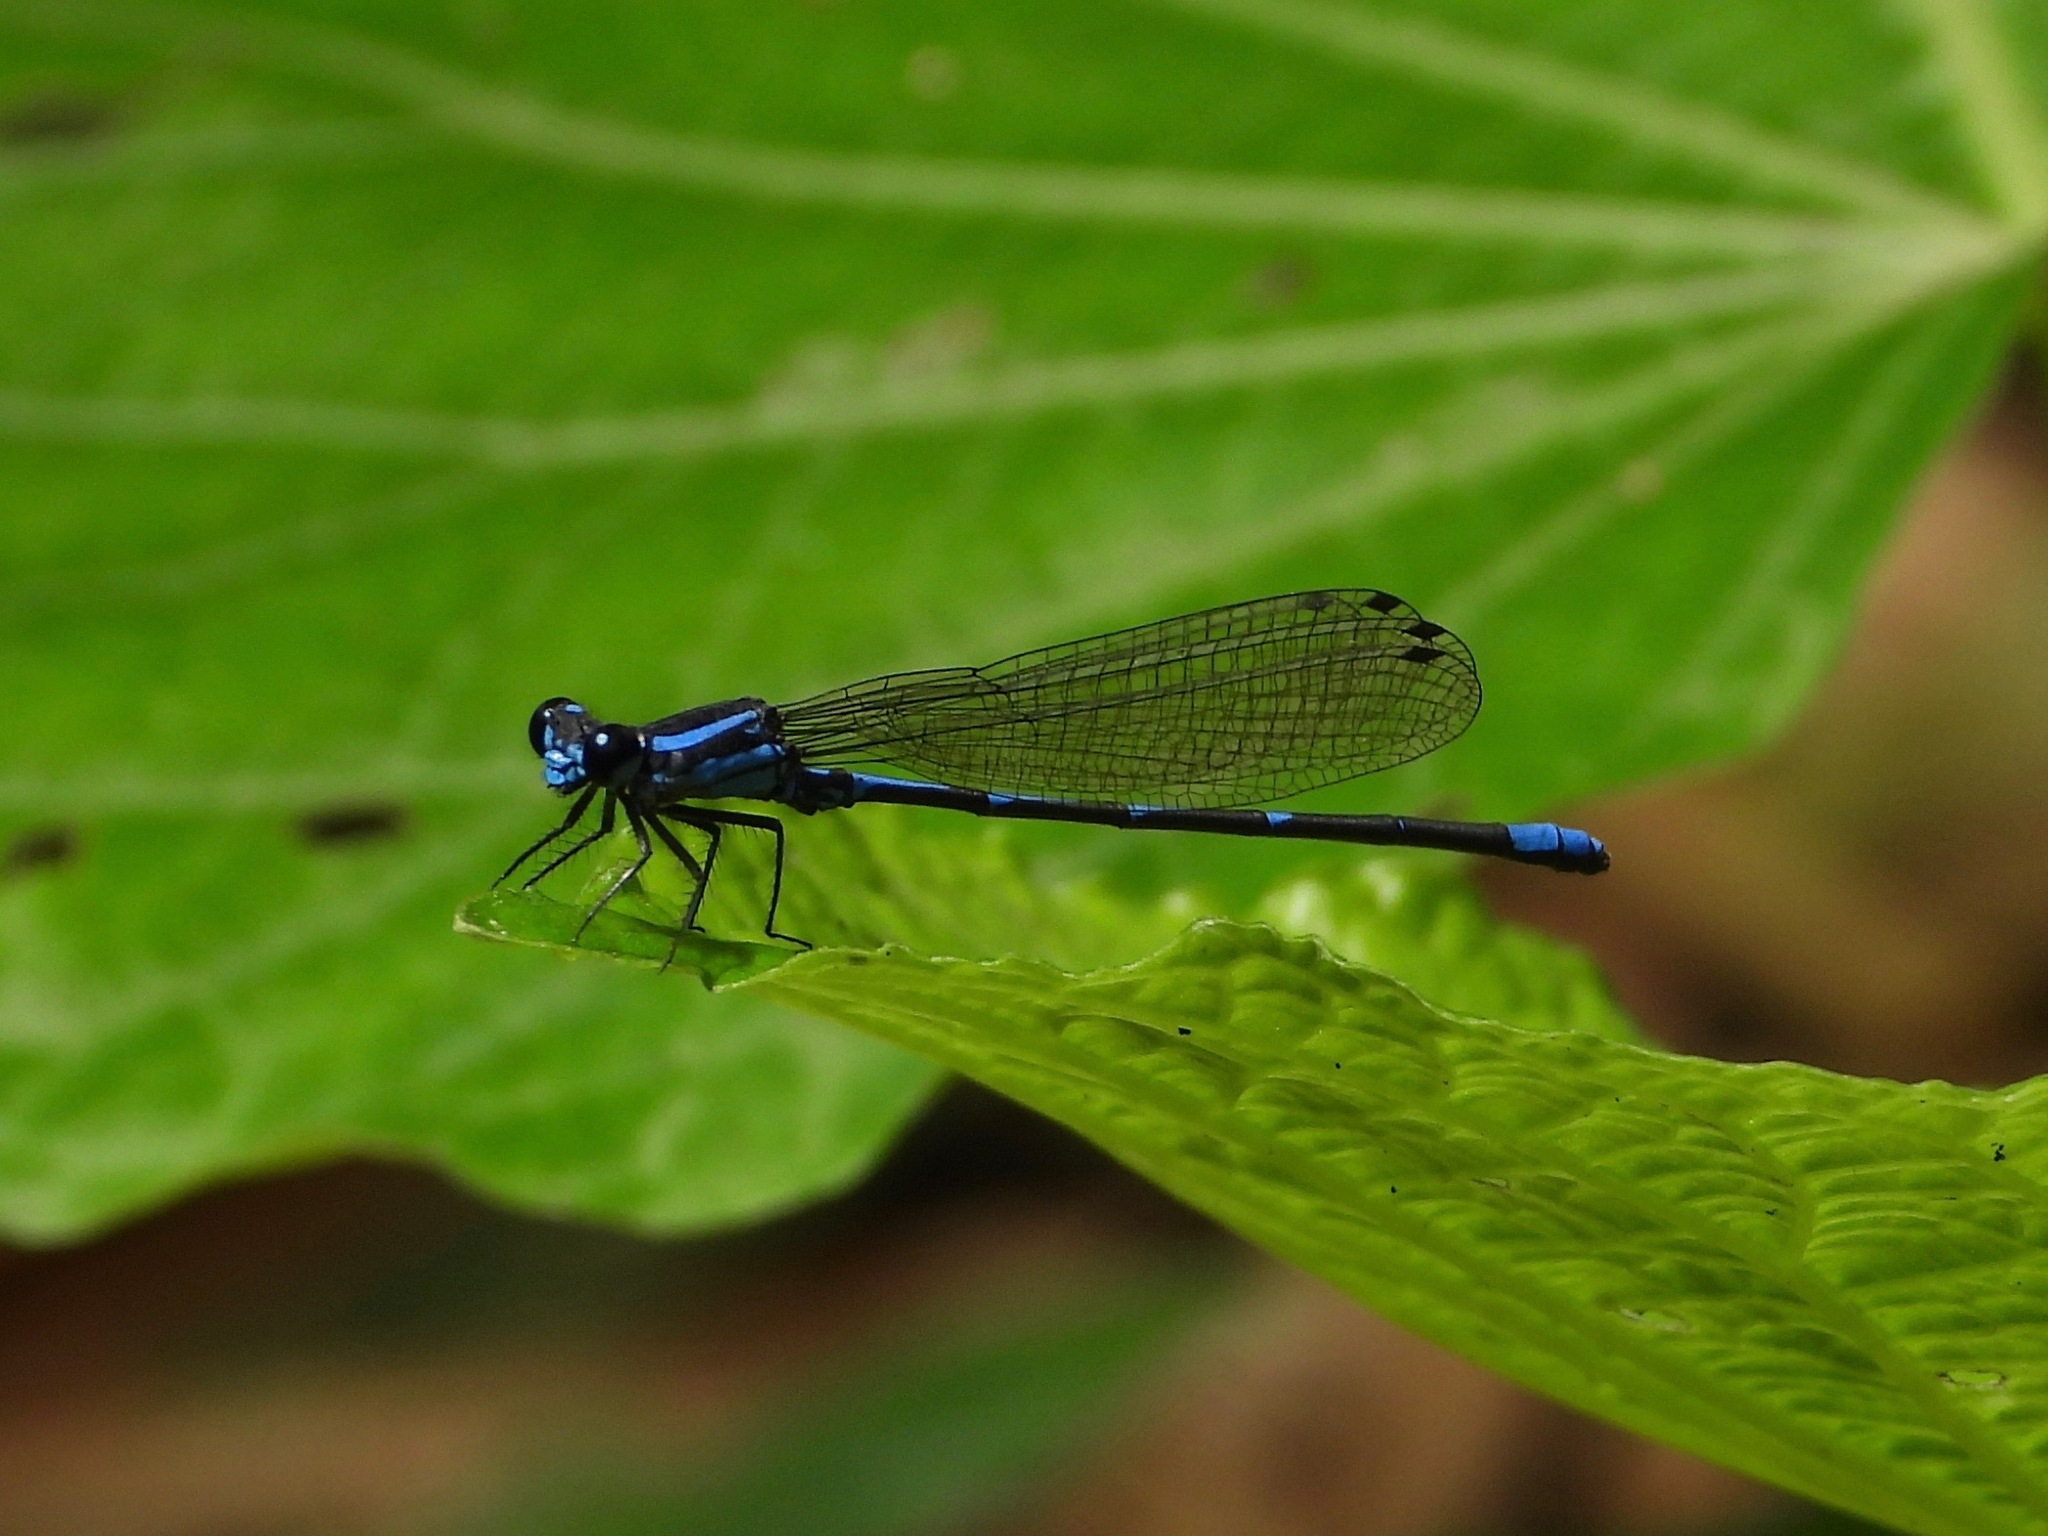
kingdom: Animalia
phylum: Arthropoda
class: Insecta
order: Odonata
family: Coenagrionidae
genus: Argia
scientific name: Argia oculata
